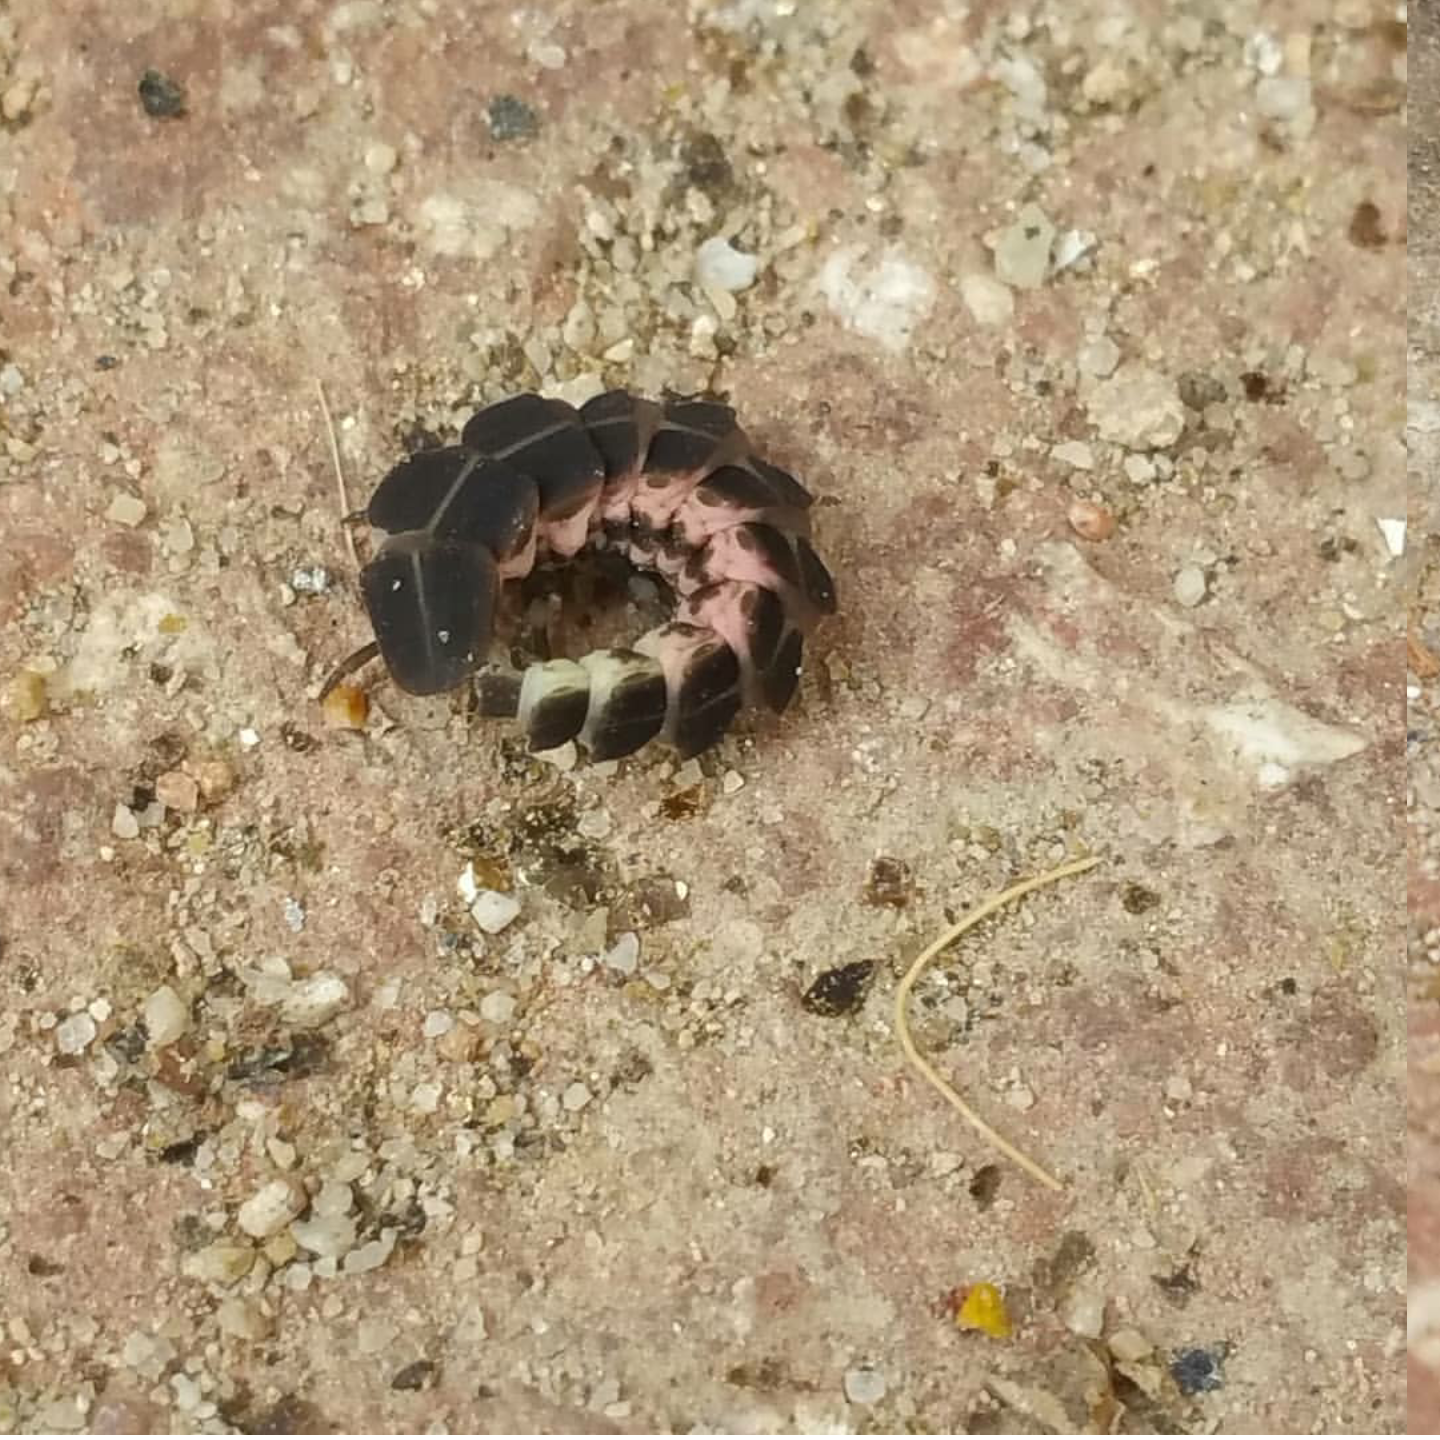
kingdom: Animalia
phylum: Arthropoda
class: Insecta
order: Coleoptera
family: Lampyridae
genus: Nyctophila
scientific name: Nyctophila reichii
